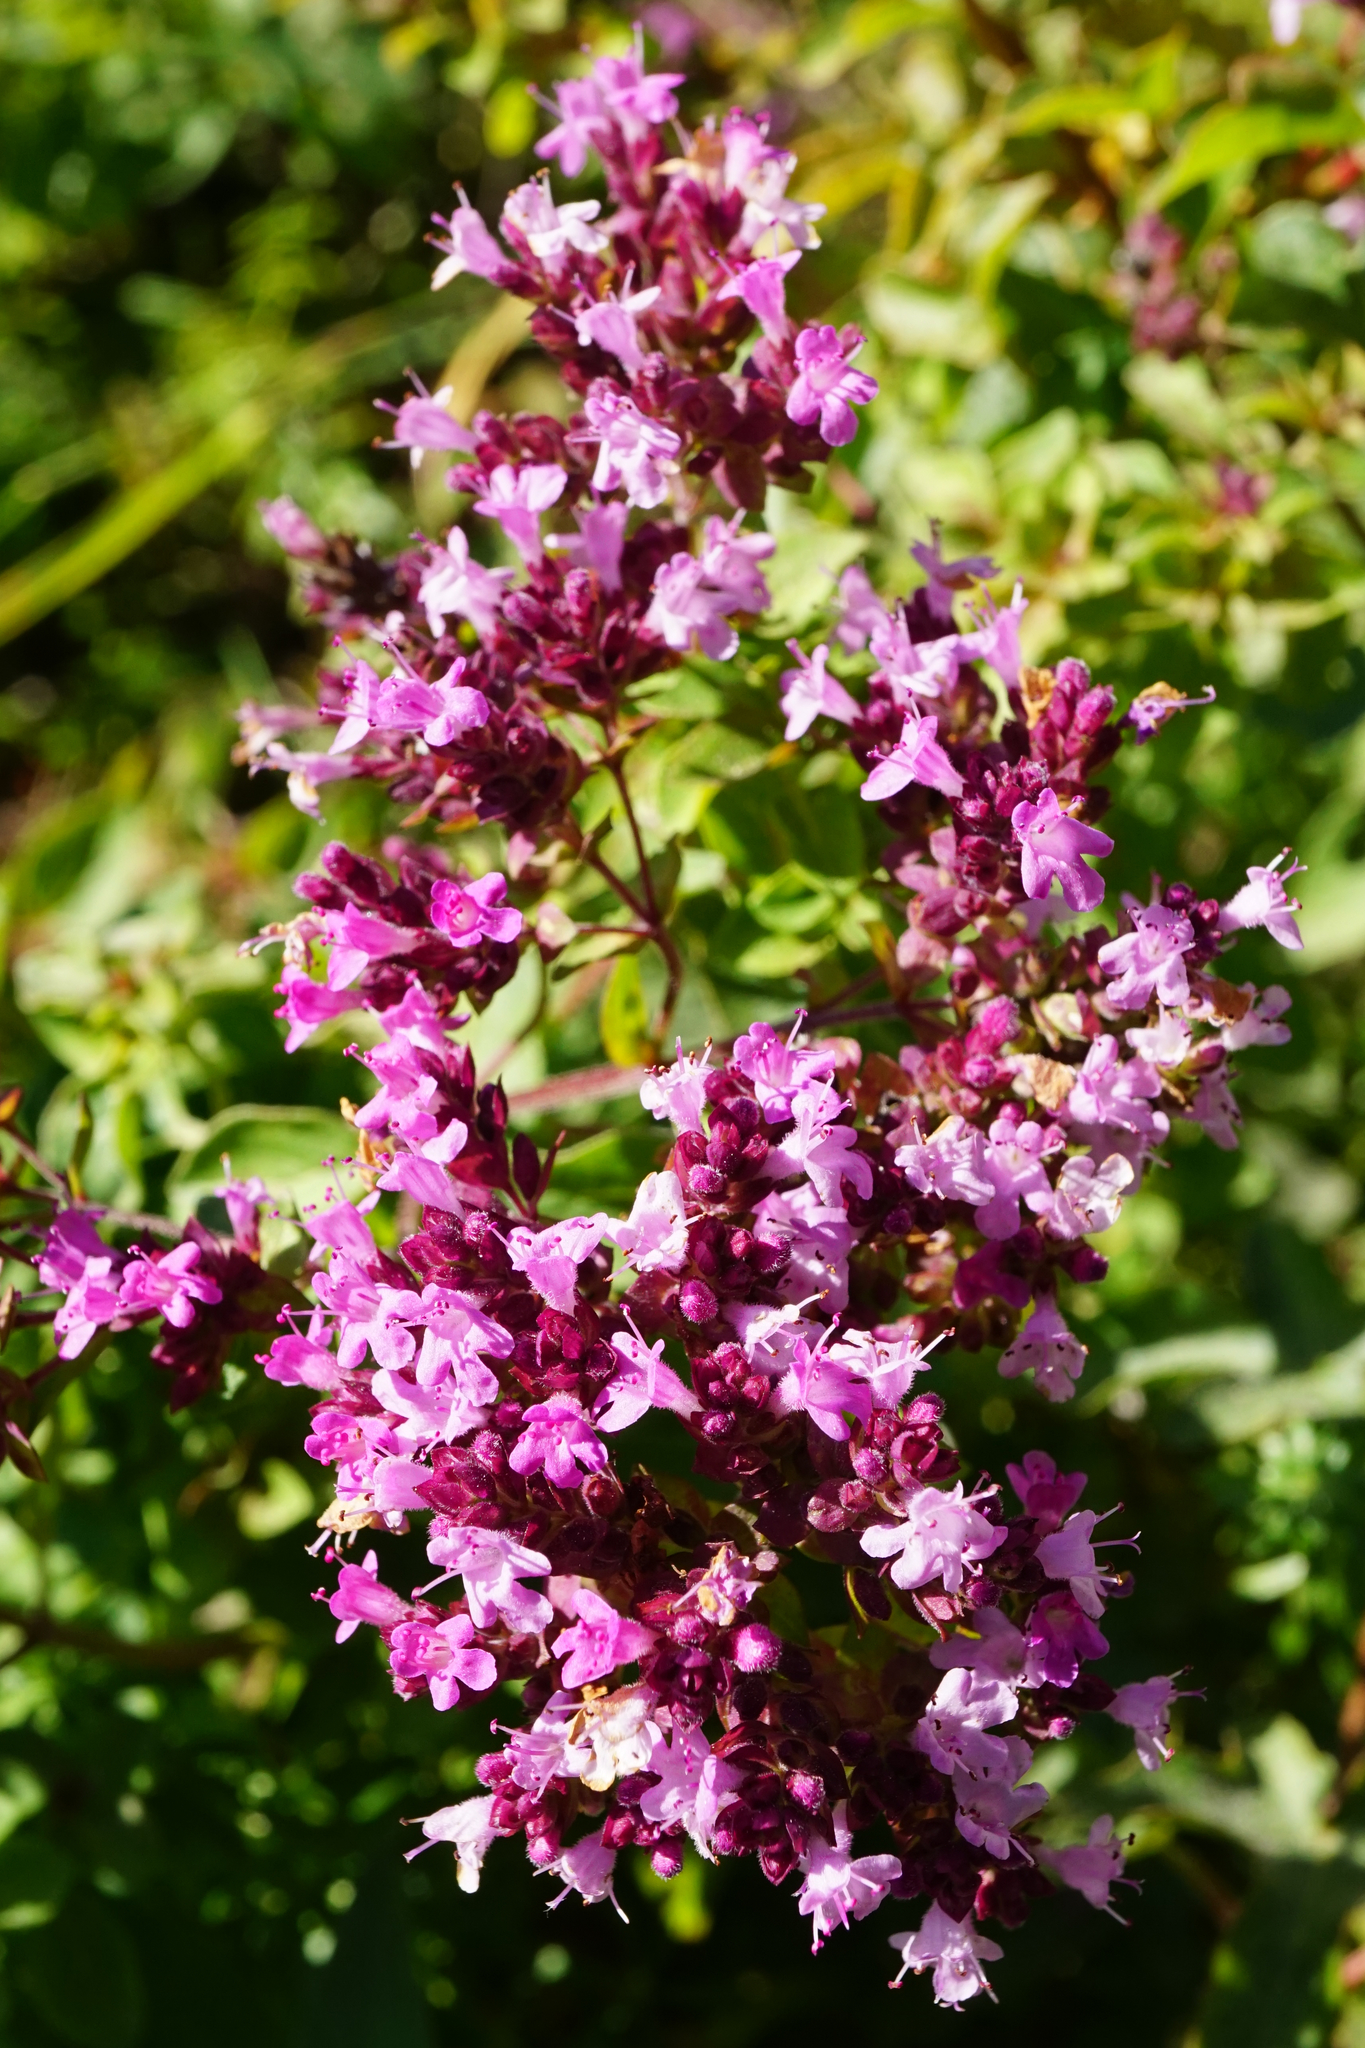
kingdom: Plantae
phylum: Tracheophyta
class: Magnoliopsida
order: Lamiales
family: Lamiaceae
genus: Origanum
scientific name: Origanum vulgare
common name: Wild marjoram
